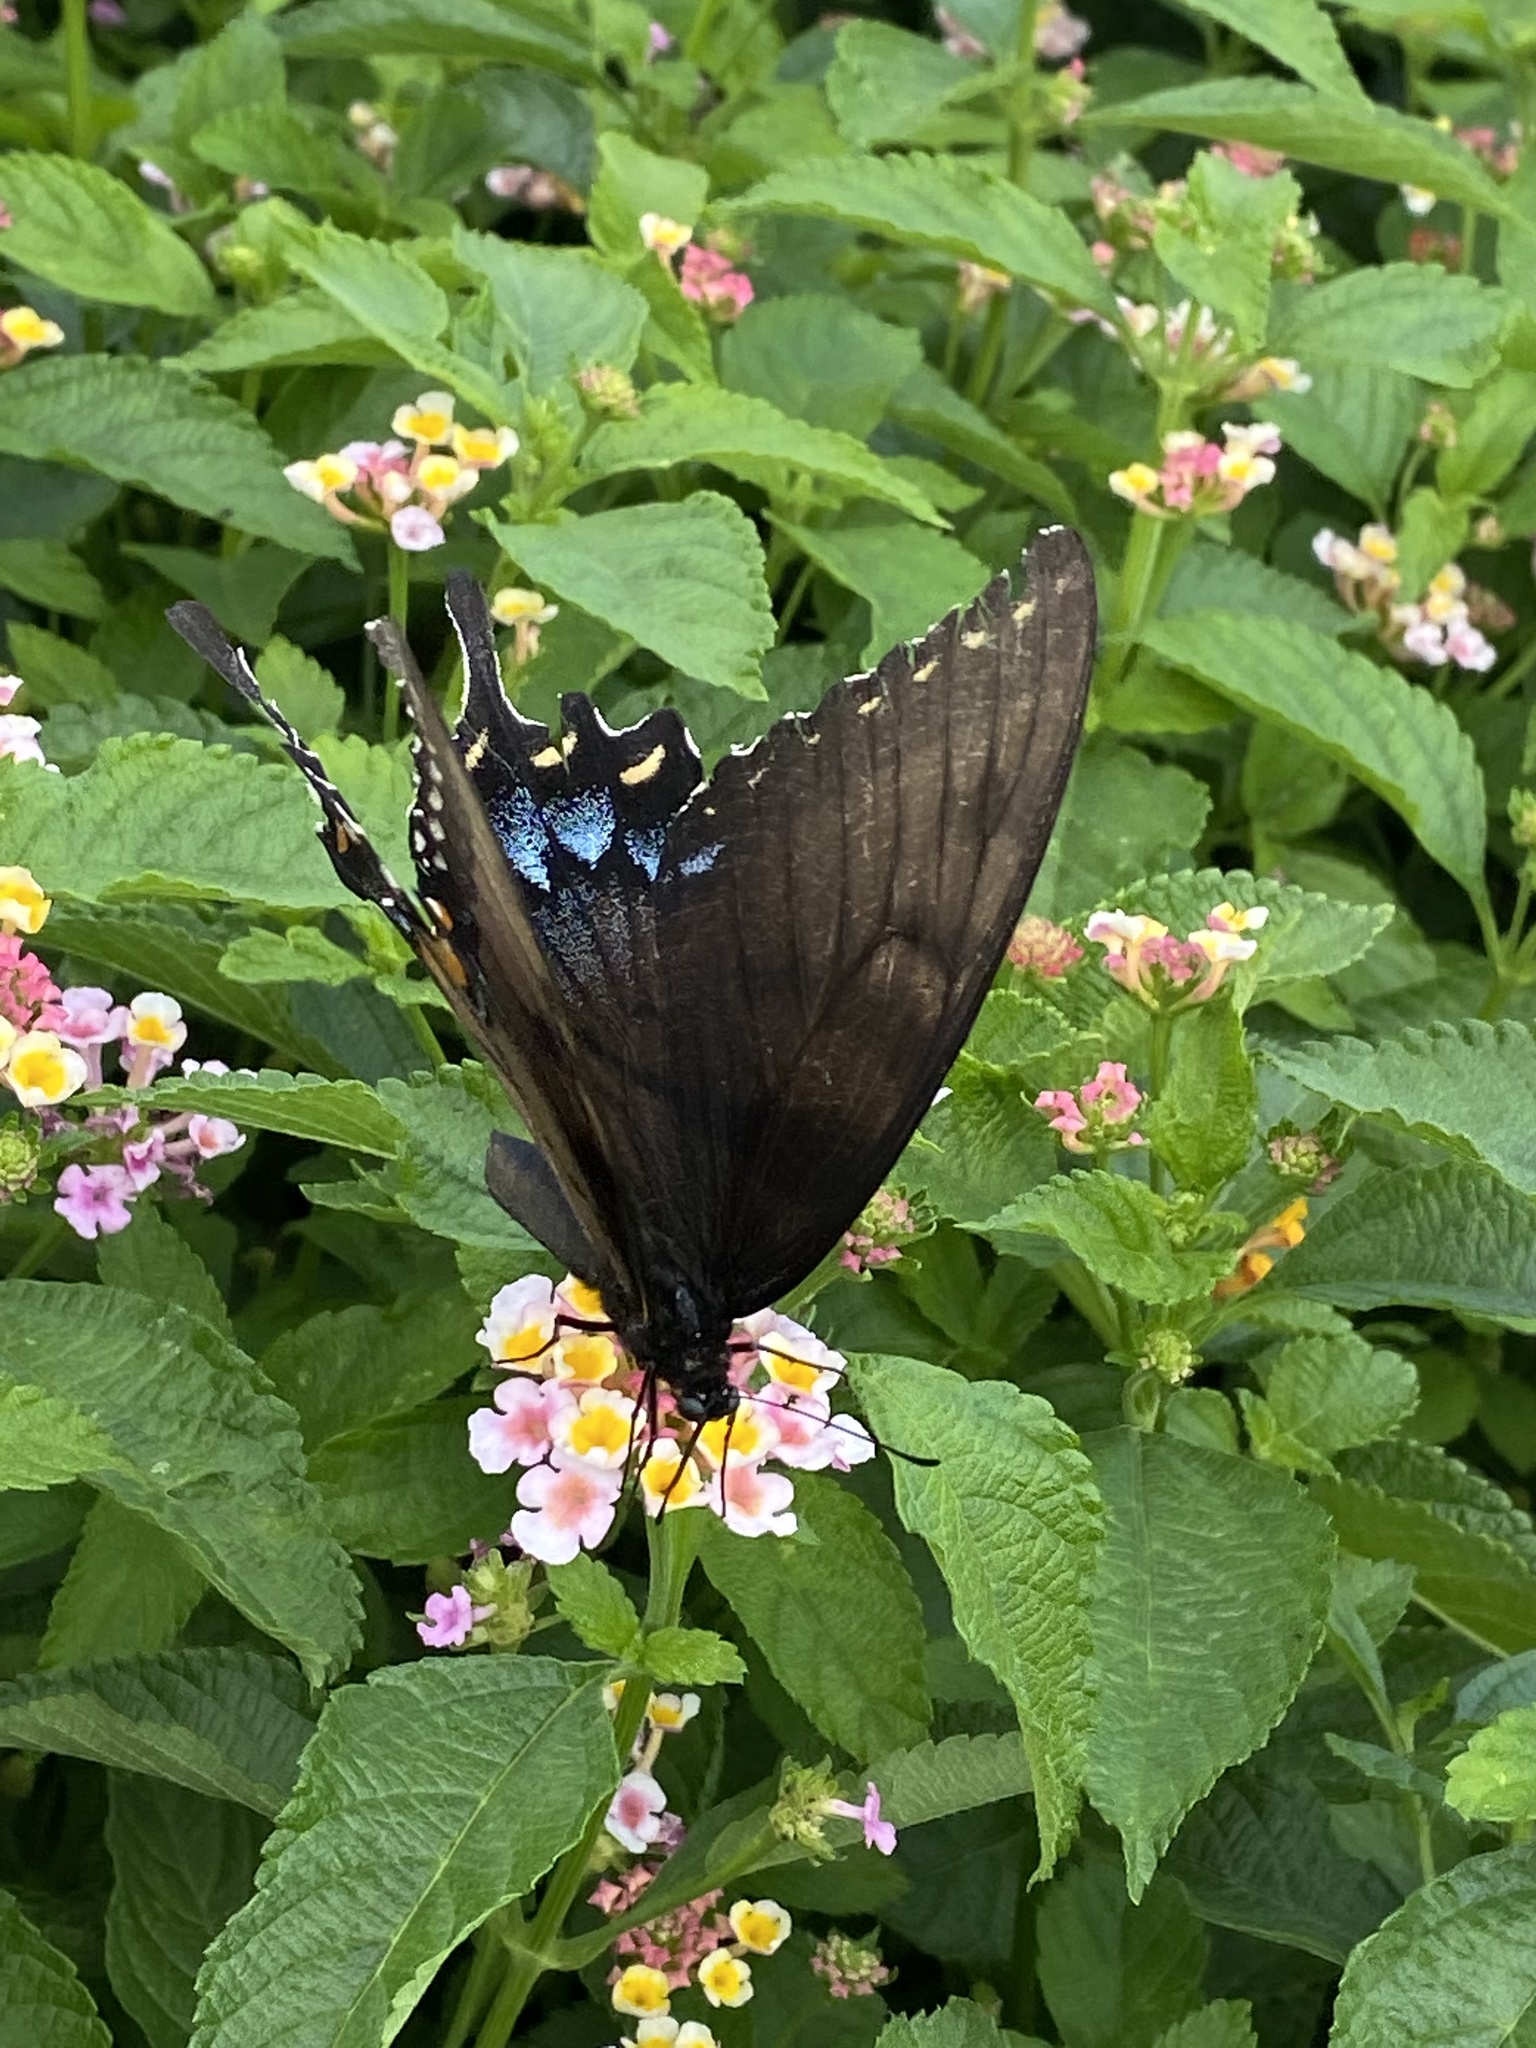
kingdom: Animalia
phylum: Arthropoda
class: Insecta
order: Lepidoptera
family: Papilionidae
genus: Papilio
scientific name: Papilio glaucus
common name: Tiger swallowtail
